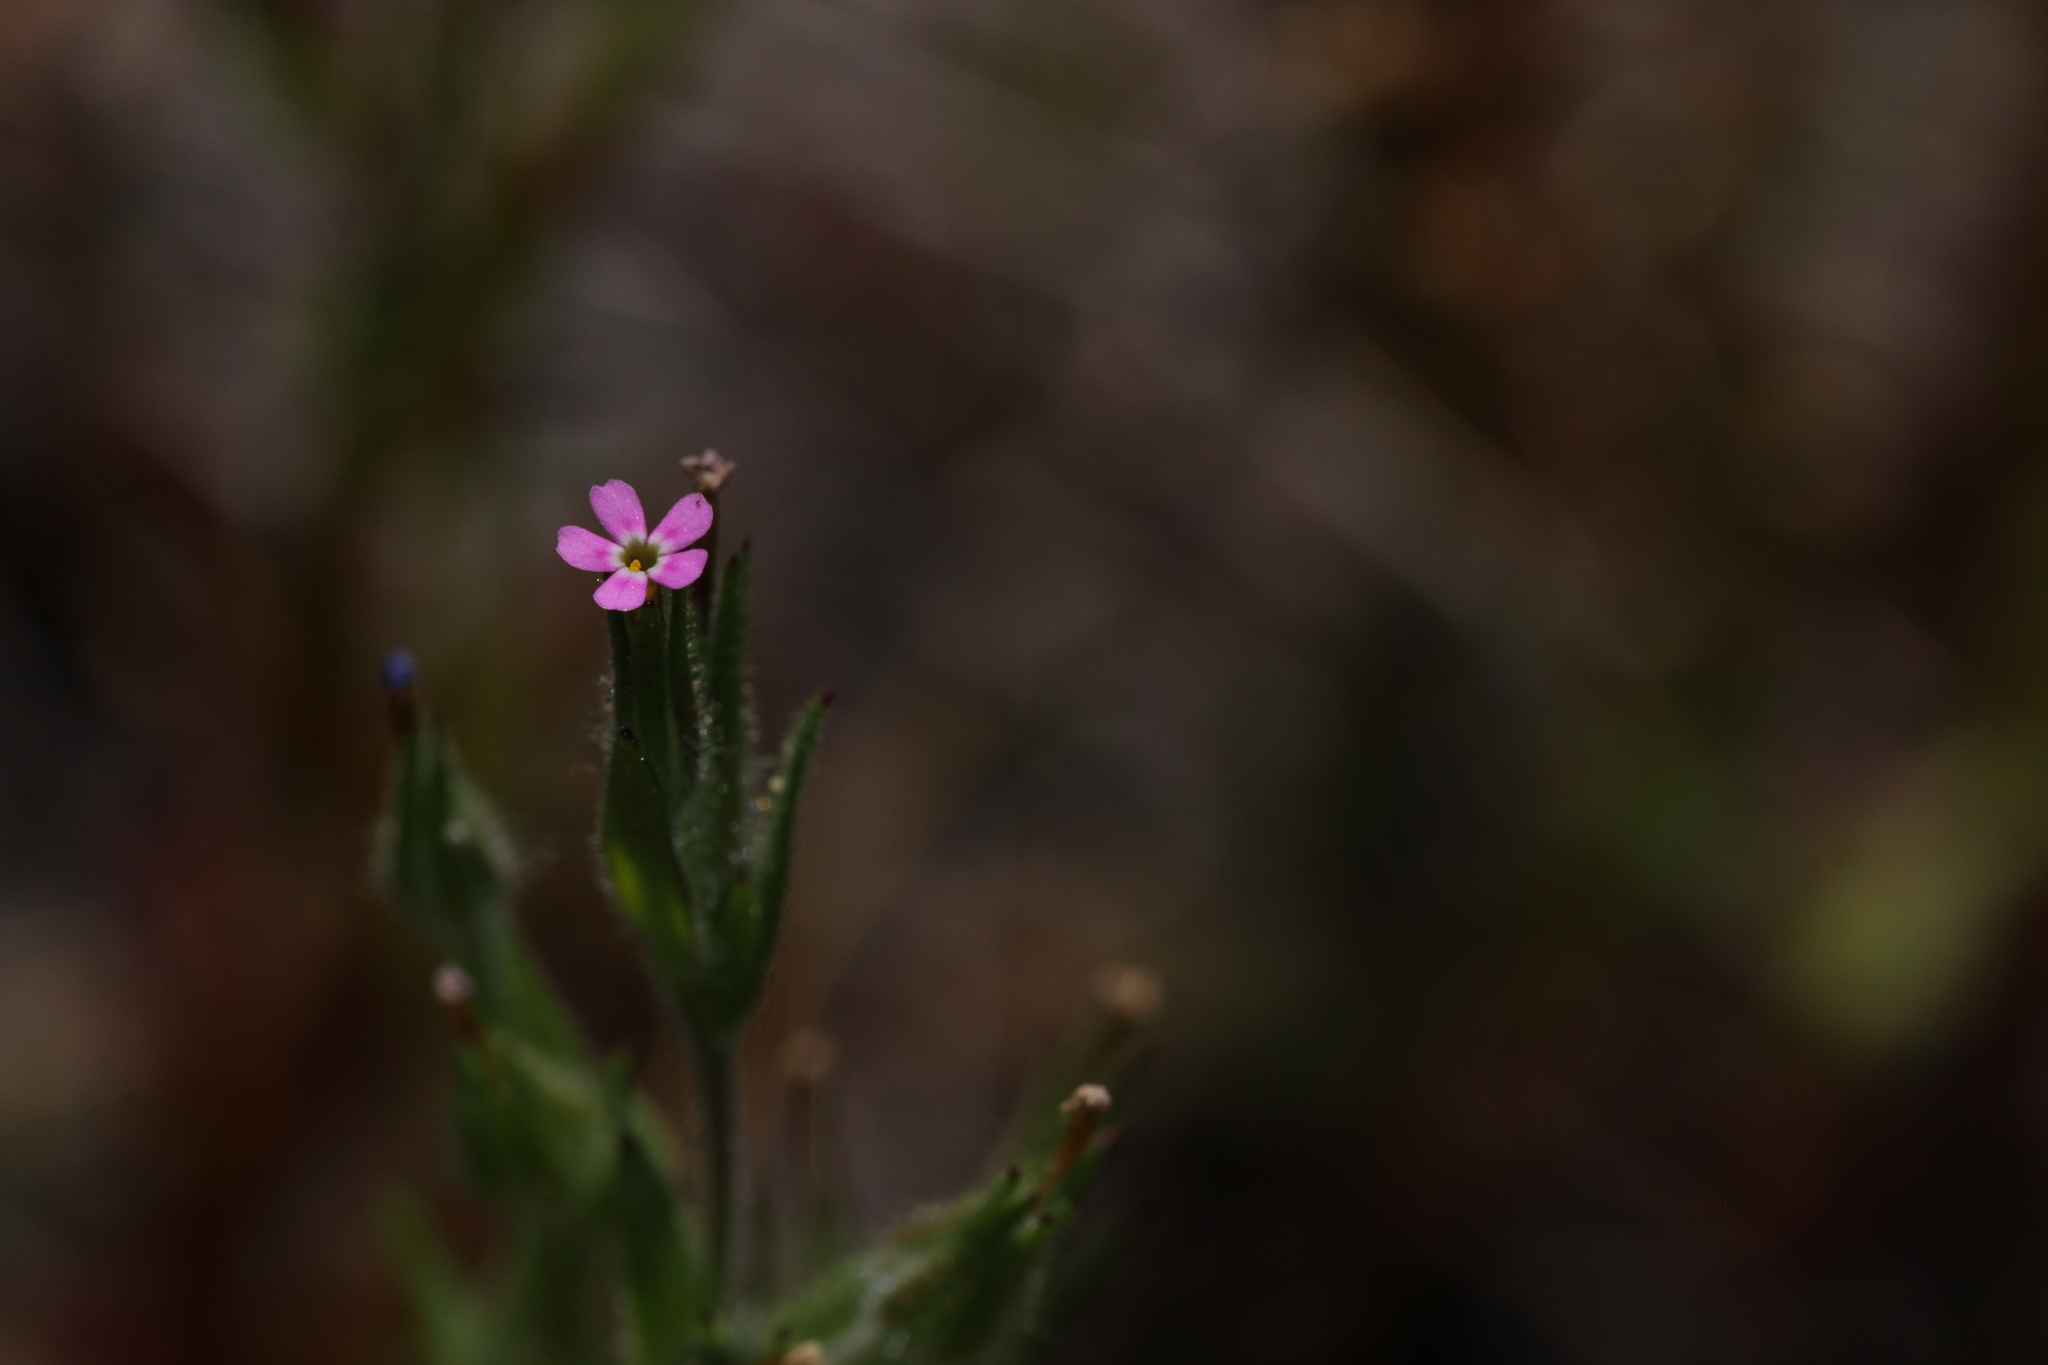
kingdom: Plantae
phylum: Tracheophyta
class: Magnoliopsida
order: Ericales
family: Polemoniaceae
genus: Phlox
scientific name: Phlox gracilis
